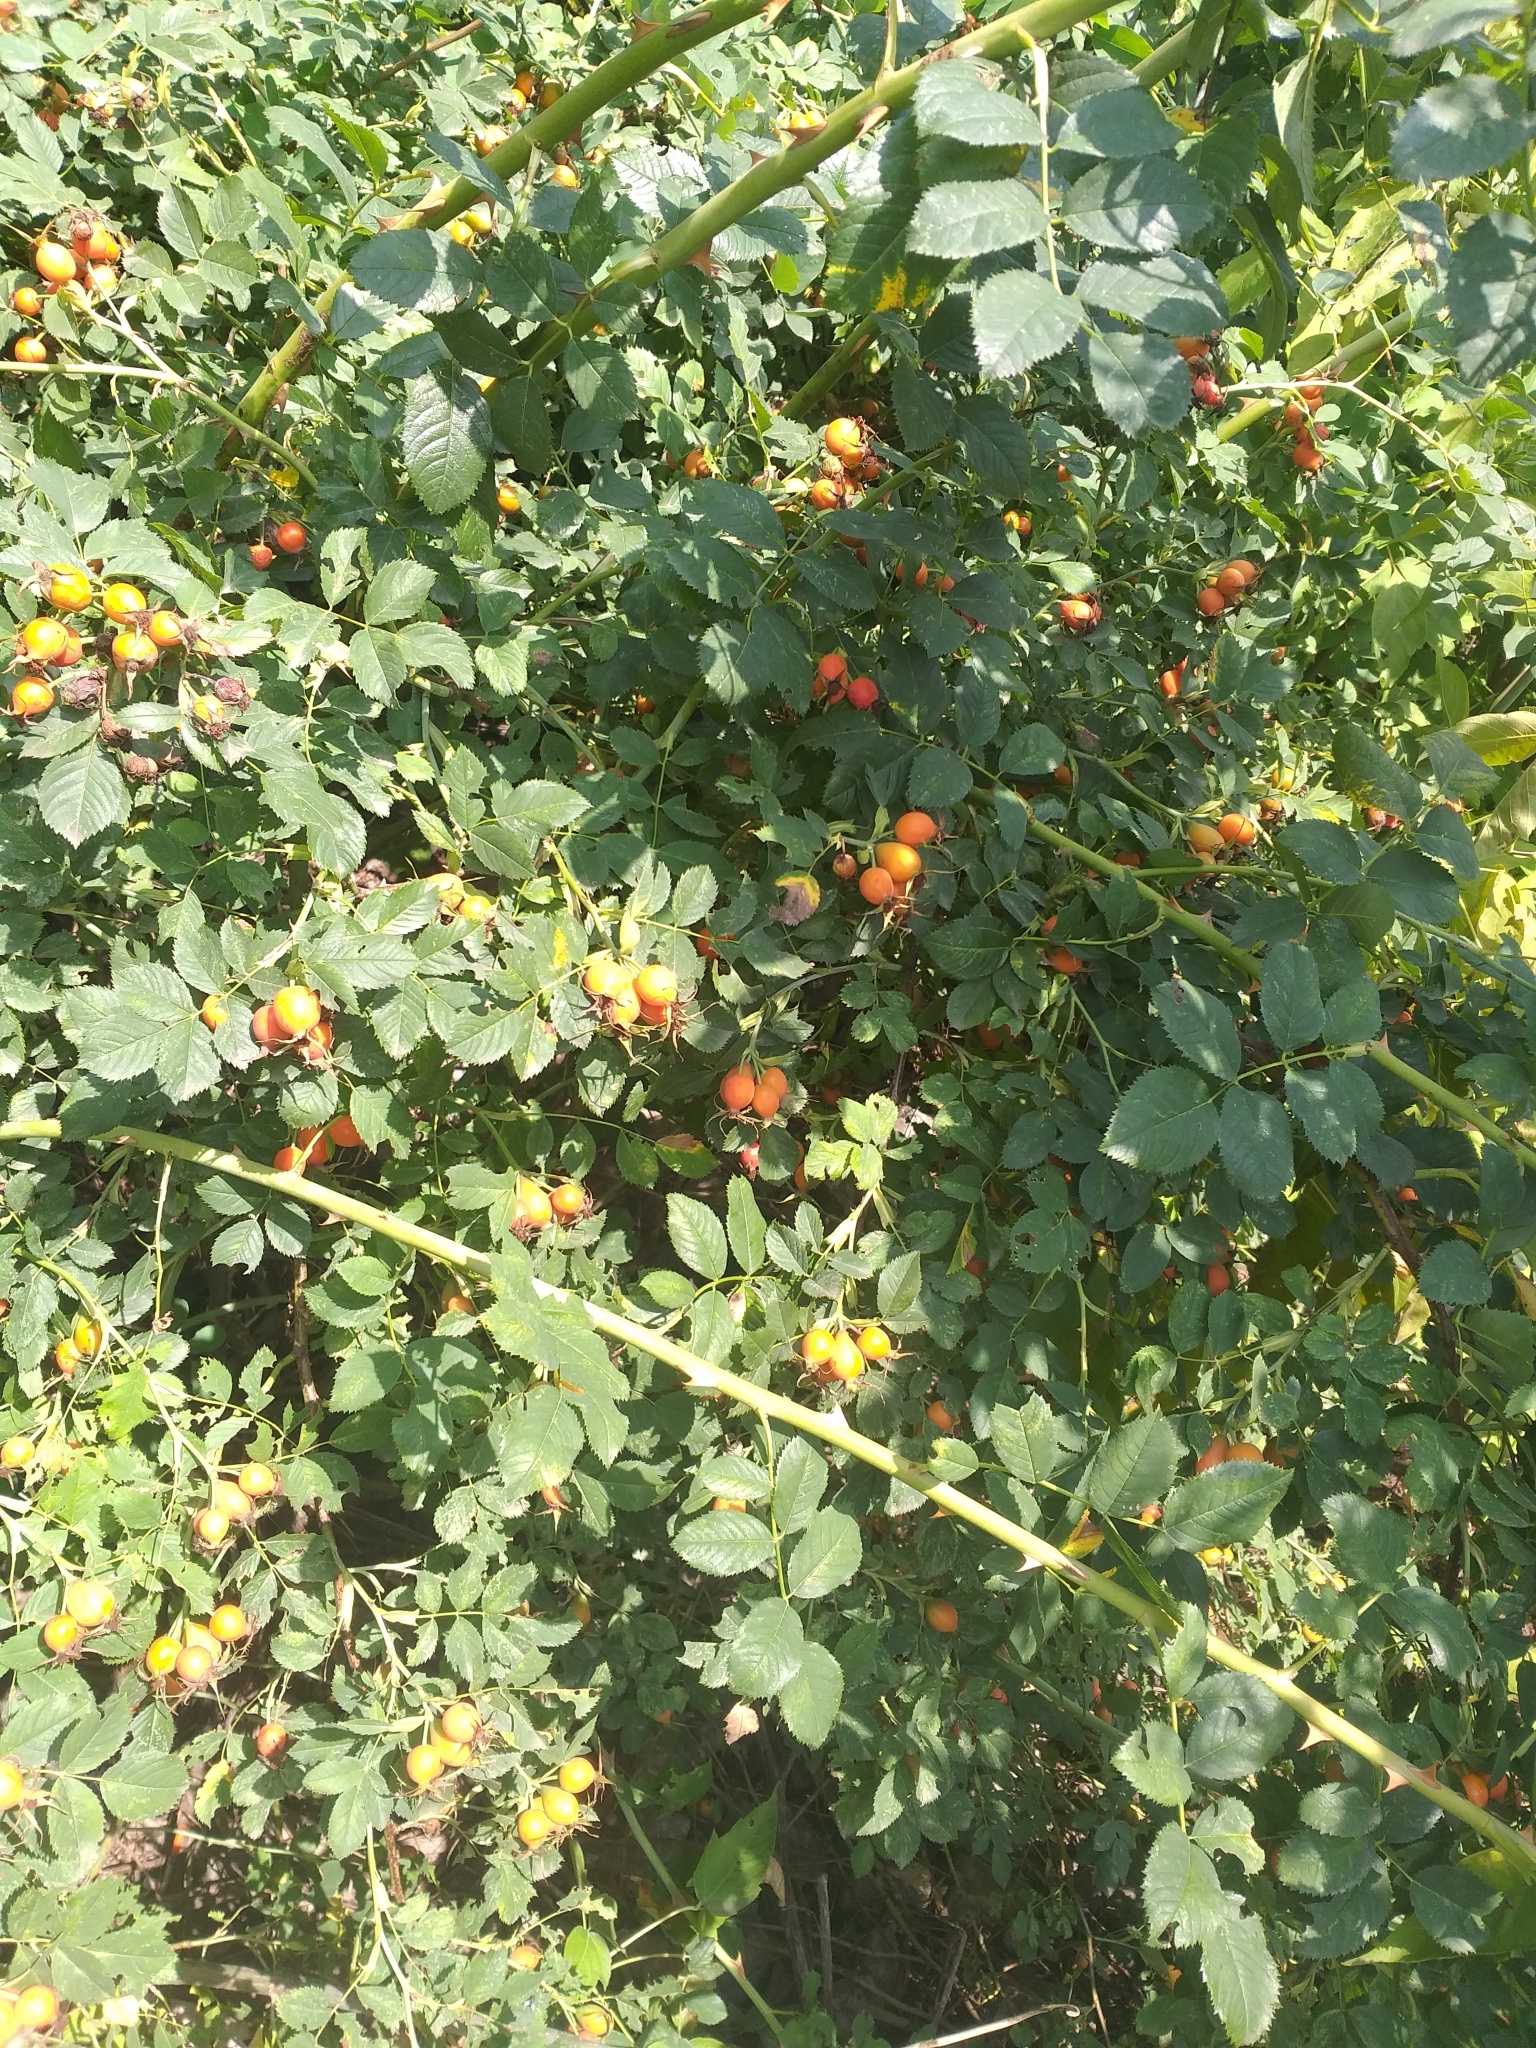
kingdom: Plantae
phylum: Tracheophyta
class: Magnoliopsida
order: Rosales
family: Rosaceae
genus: Rosa
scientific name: Rosa dumalis
